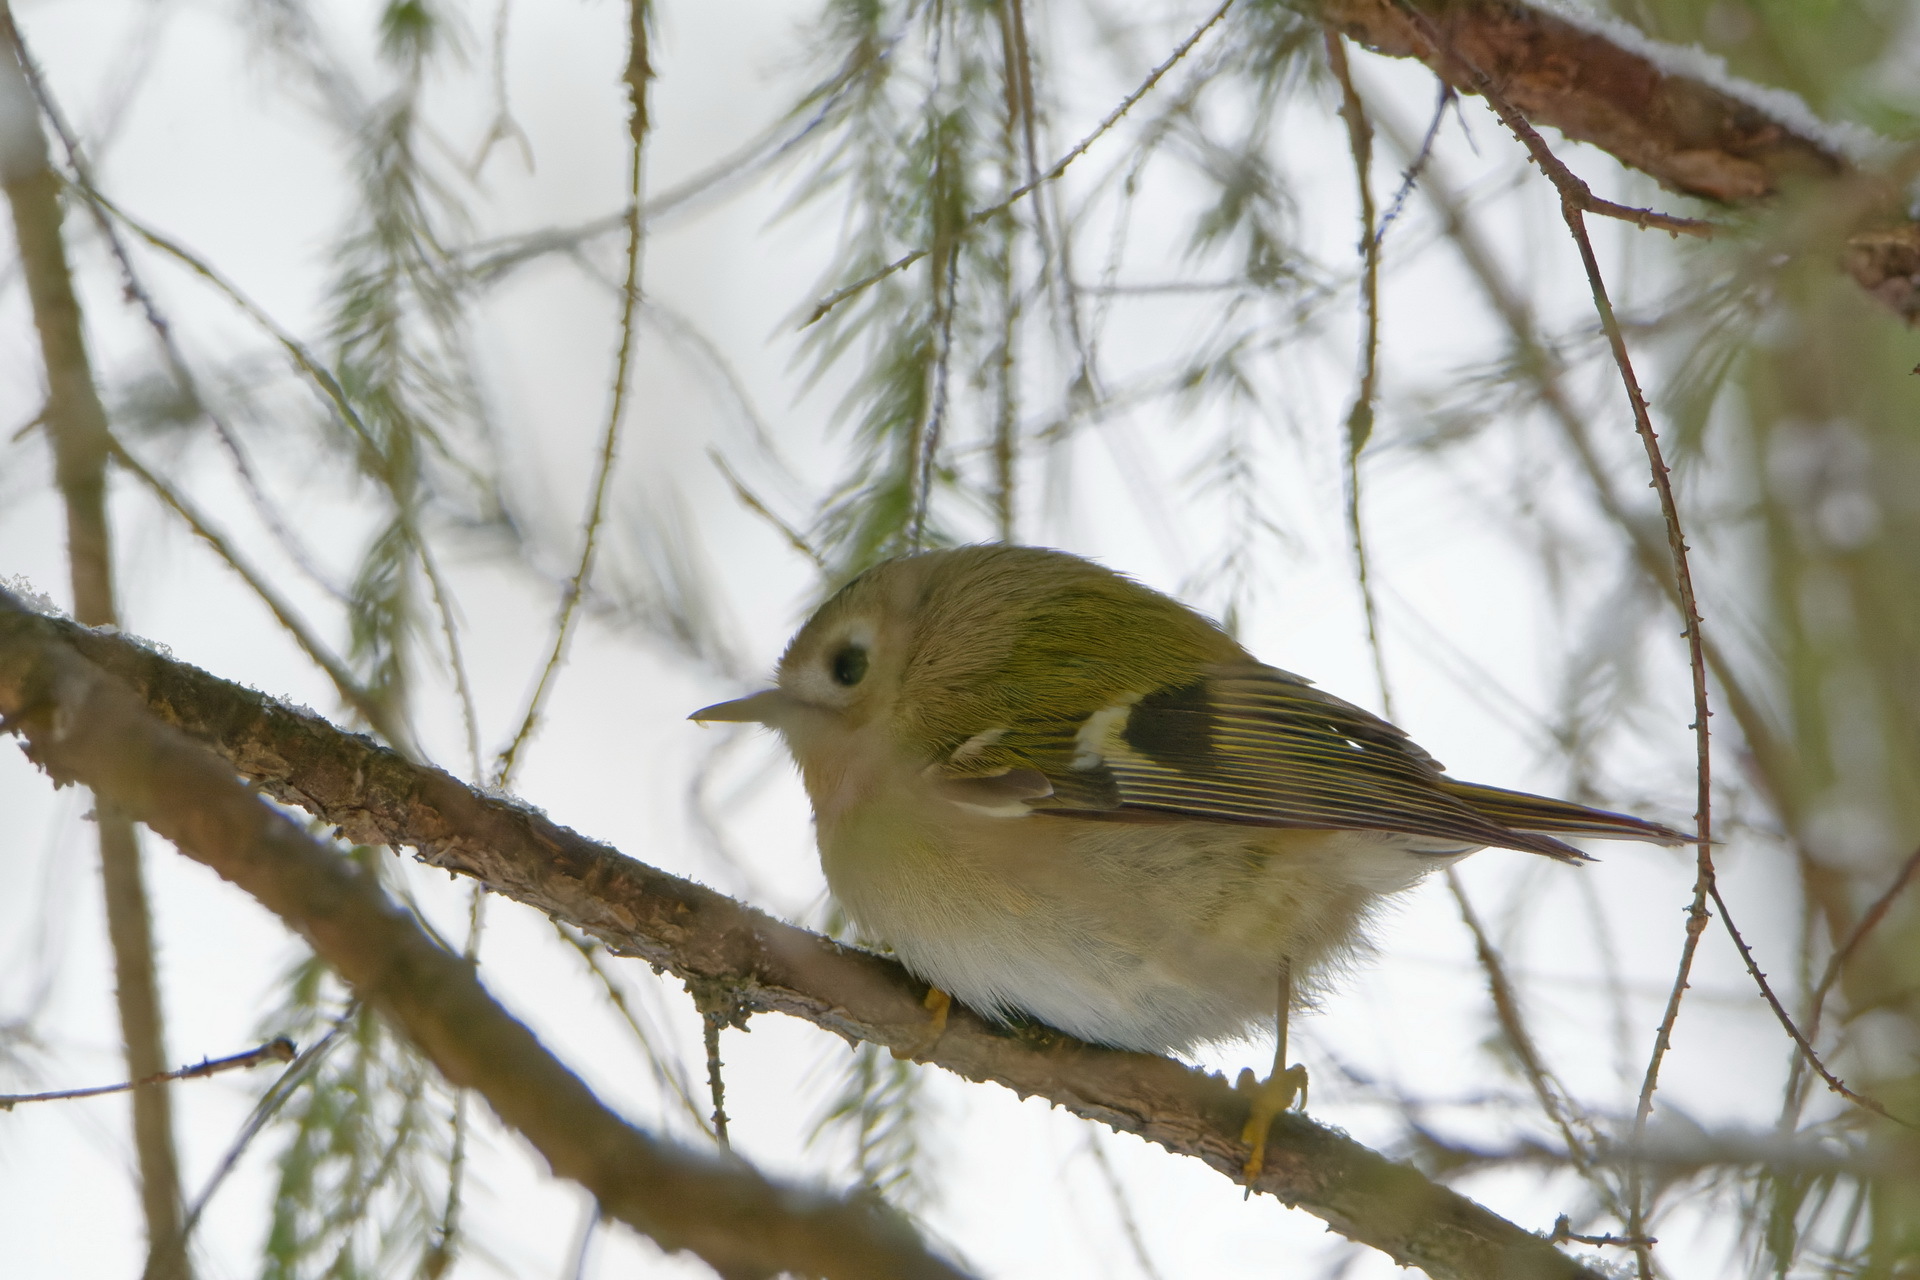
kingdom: Animalia
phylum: Chordata
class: Aves
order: Passeriformes
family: Regulidae
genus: Regulus
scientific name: Regulus regulus
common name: Goldcrest
